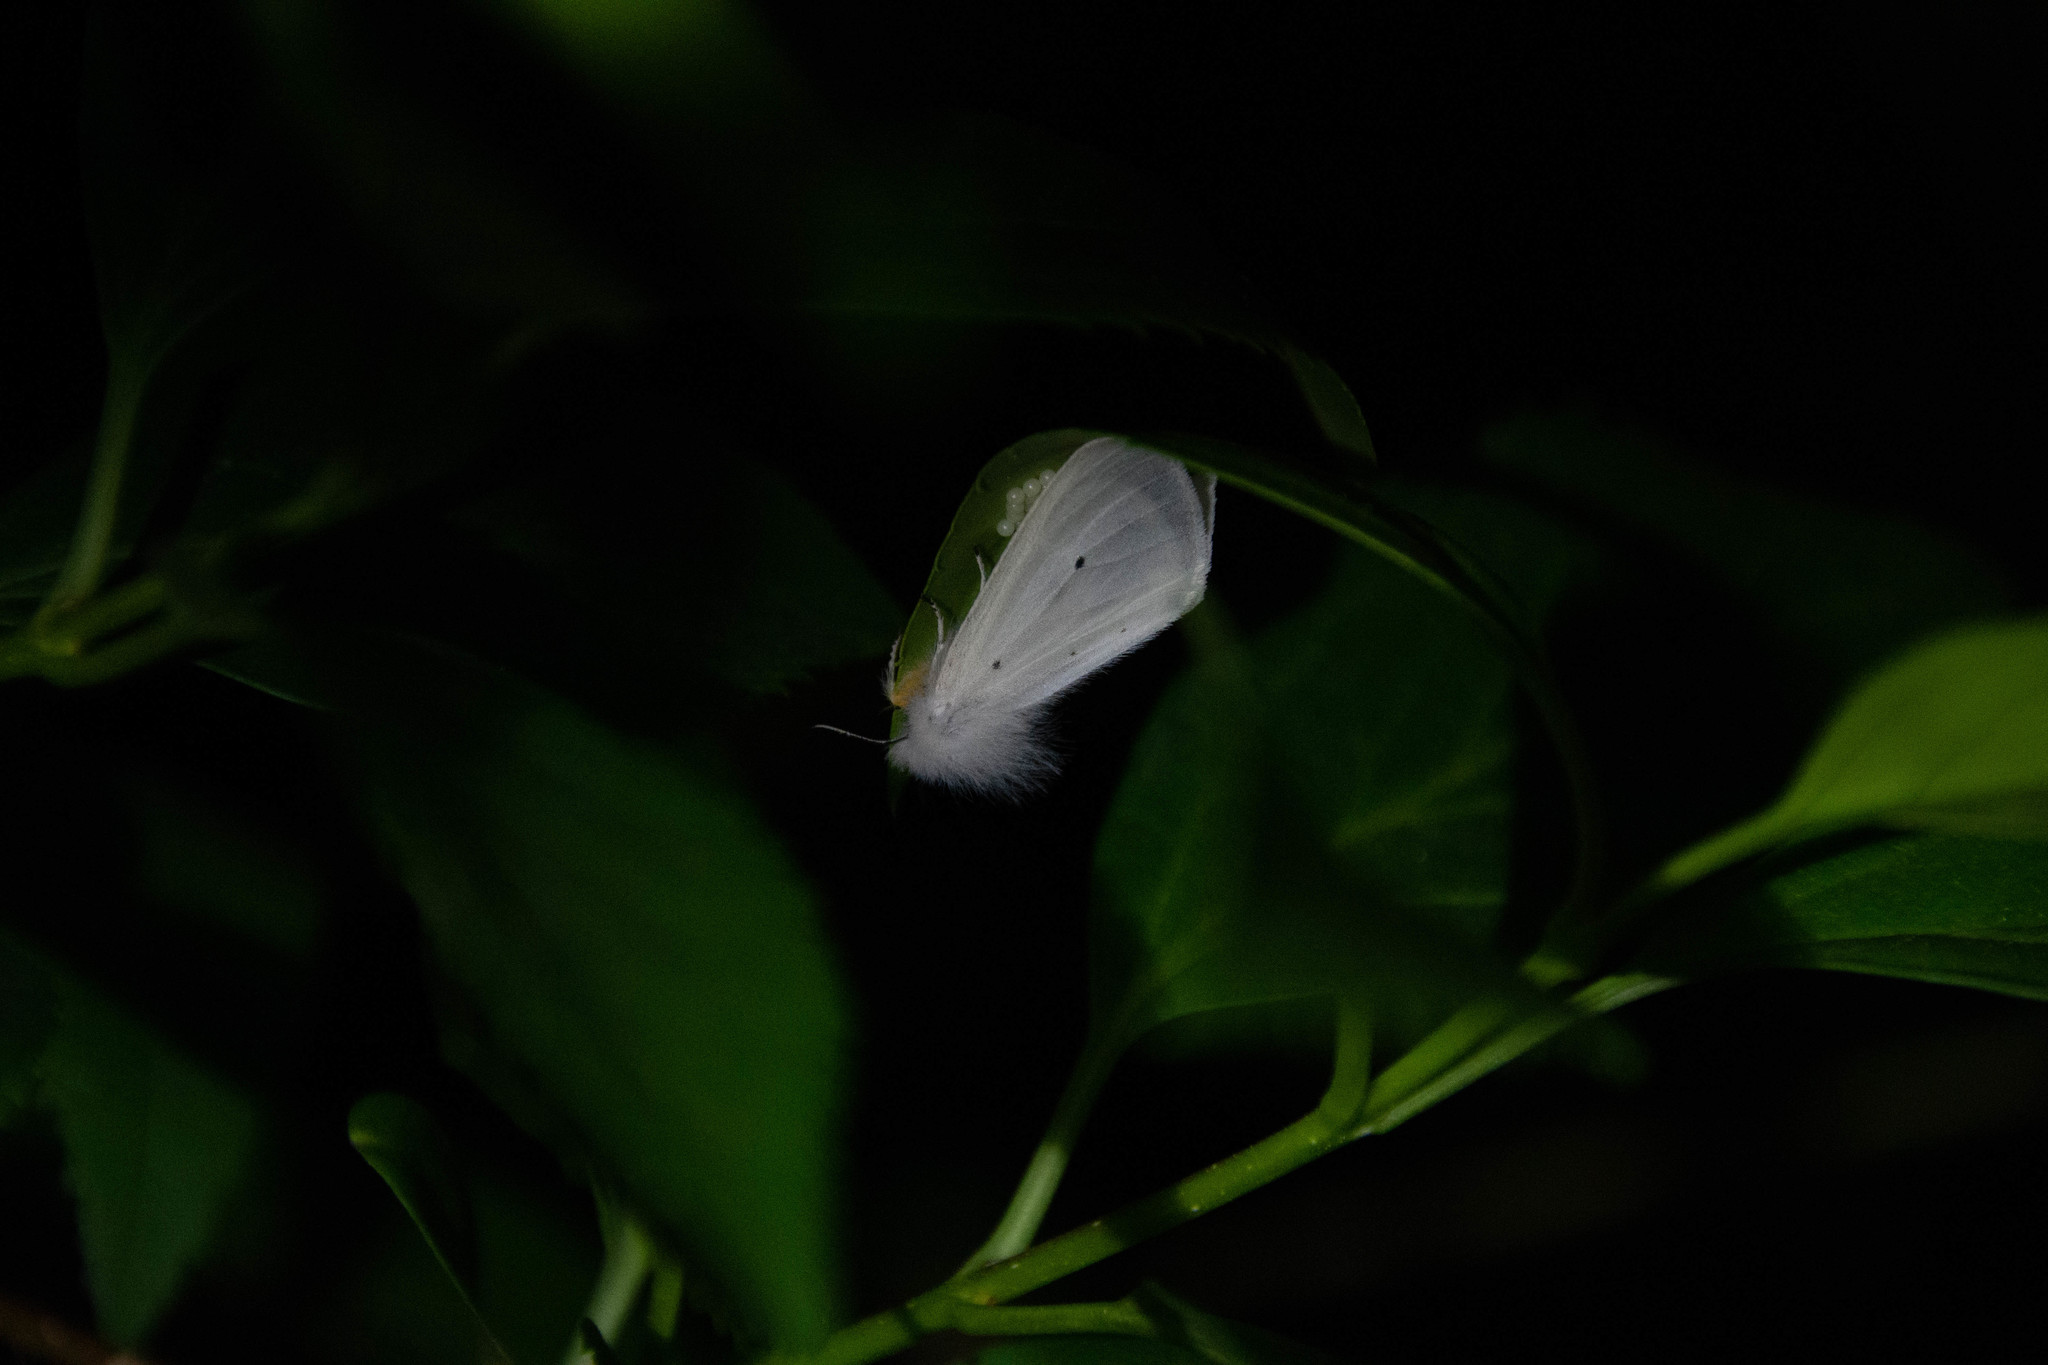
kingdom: Animalia
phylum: Arthropoda
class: Insecta
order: Lepidoptera
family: Erebidae
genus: Diaphora
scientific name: Diaphora mendica
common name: Muslin moth
